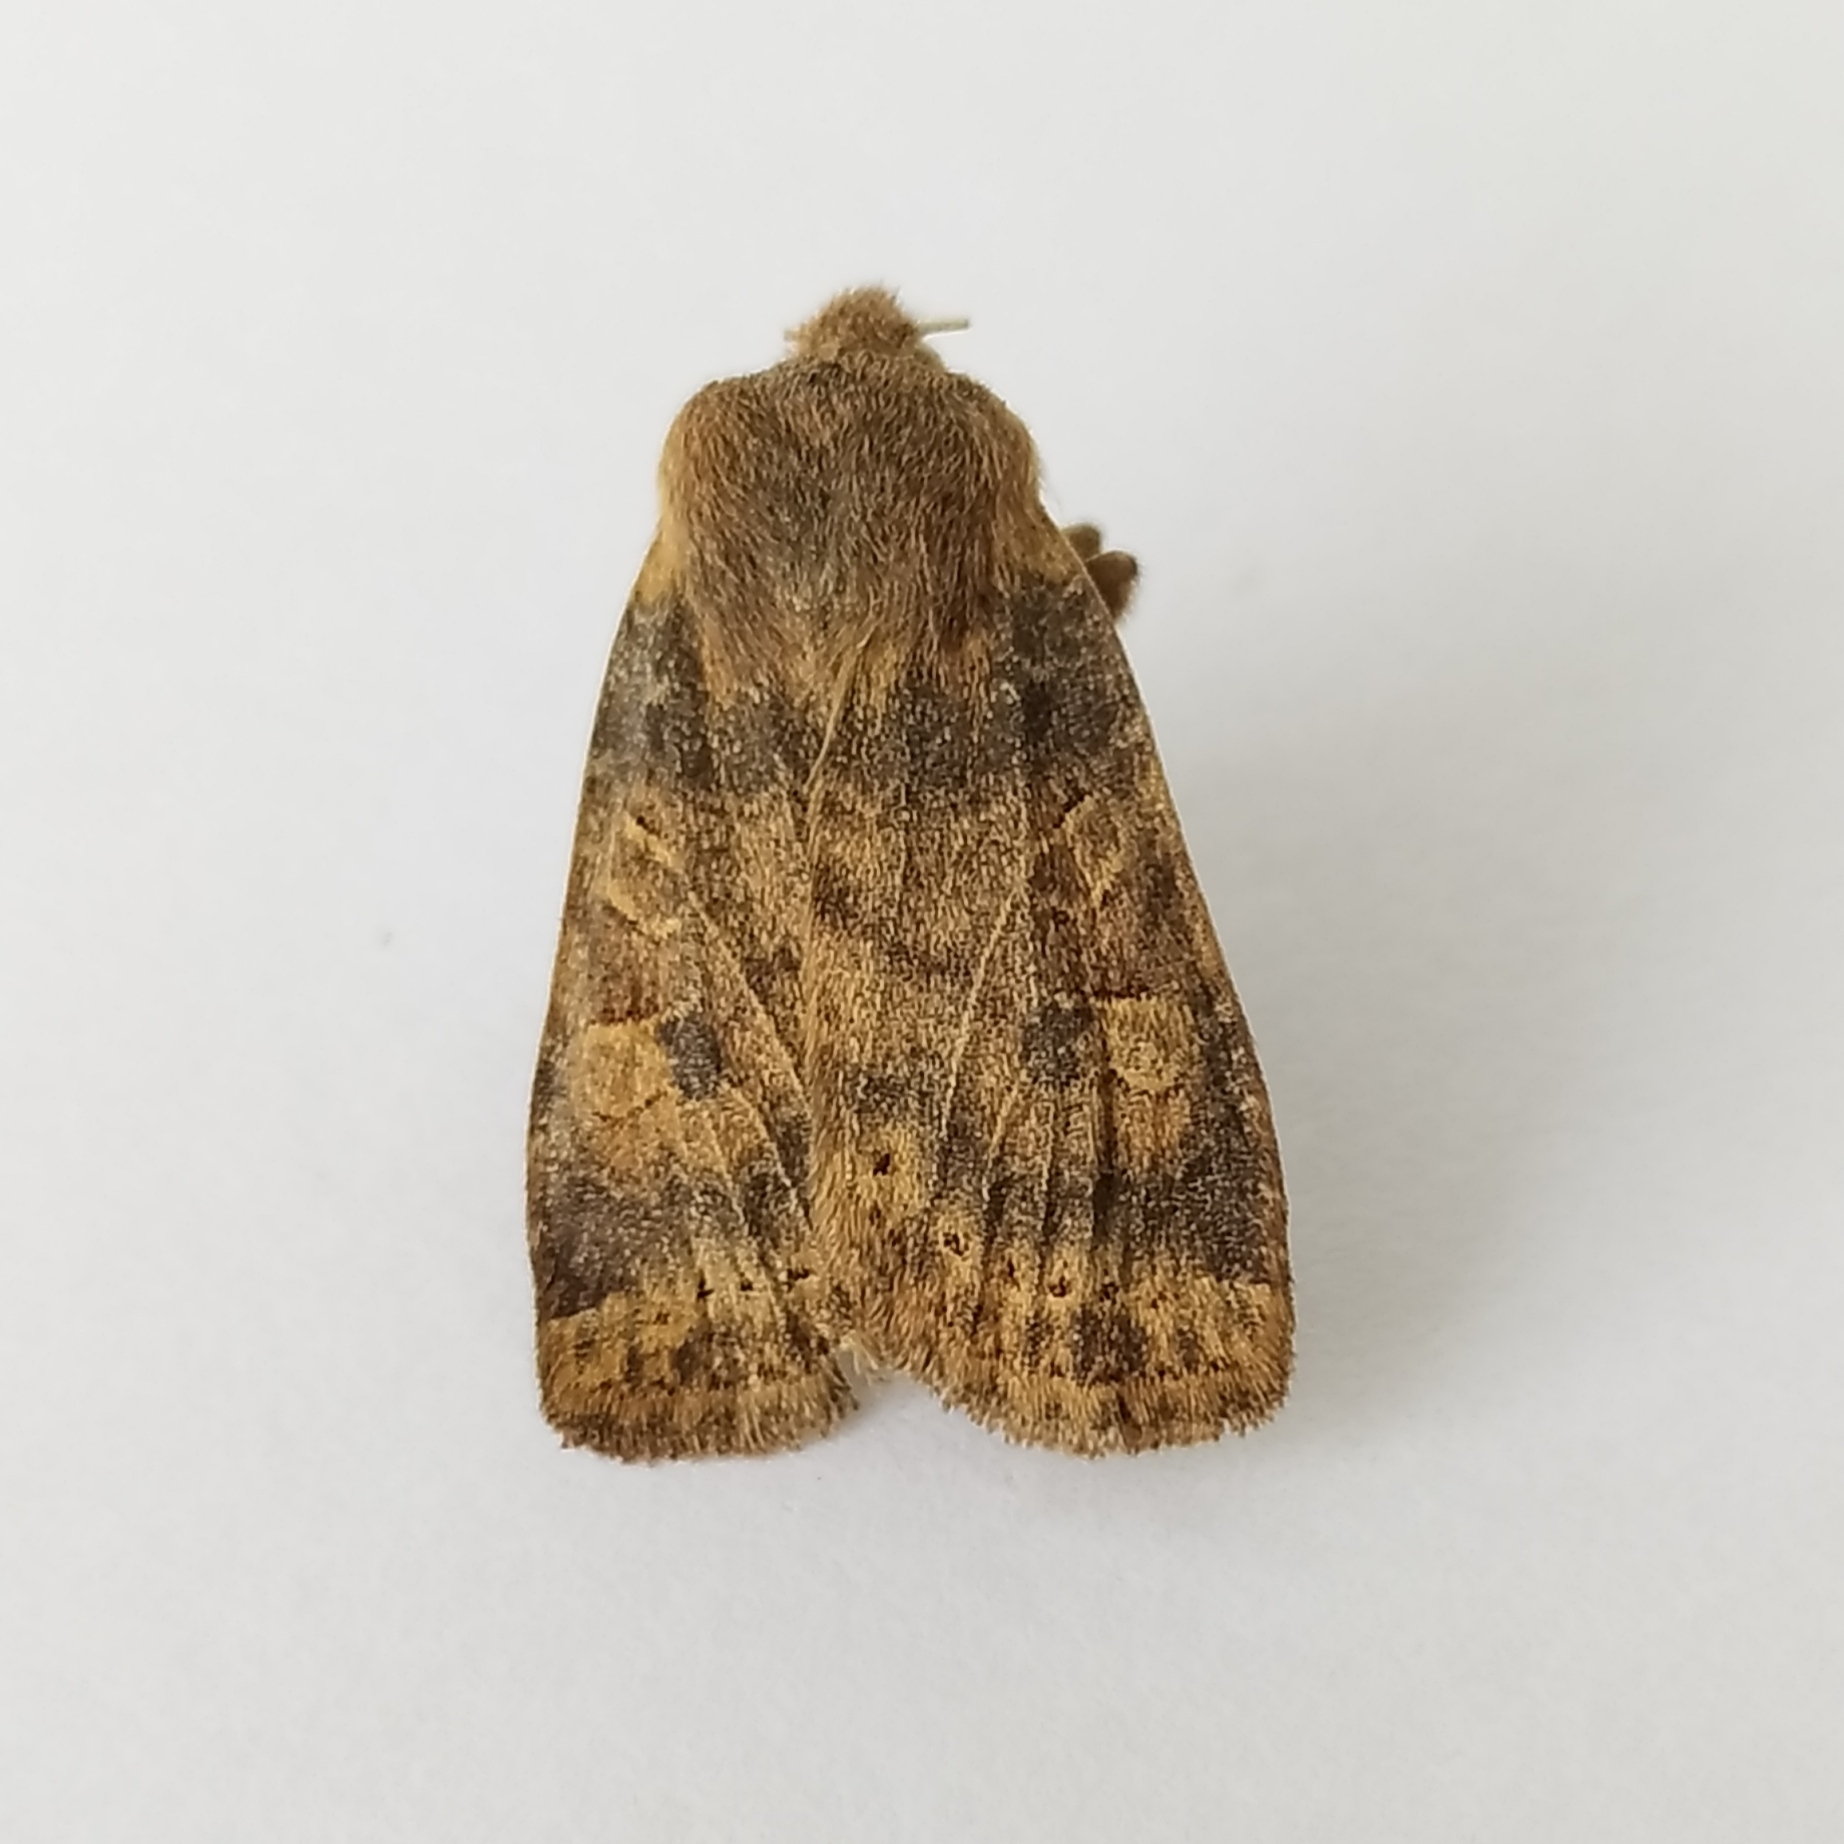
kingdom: Animalia
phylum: Arthropoda
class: Insecta
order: Lepidoptera
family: Noctuidae
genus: Conistra
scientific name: Conistra vaccinii
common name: Chestnut
